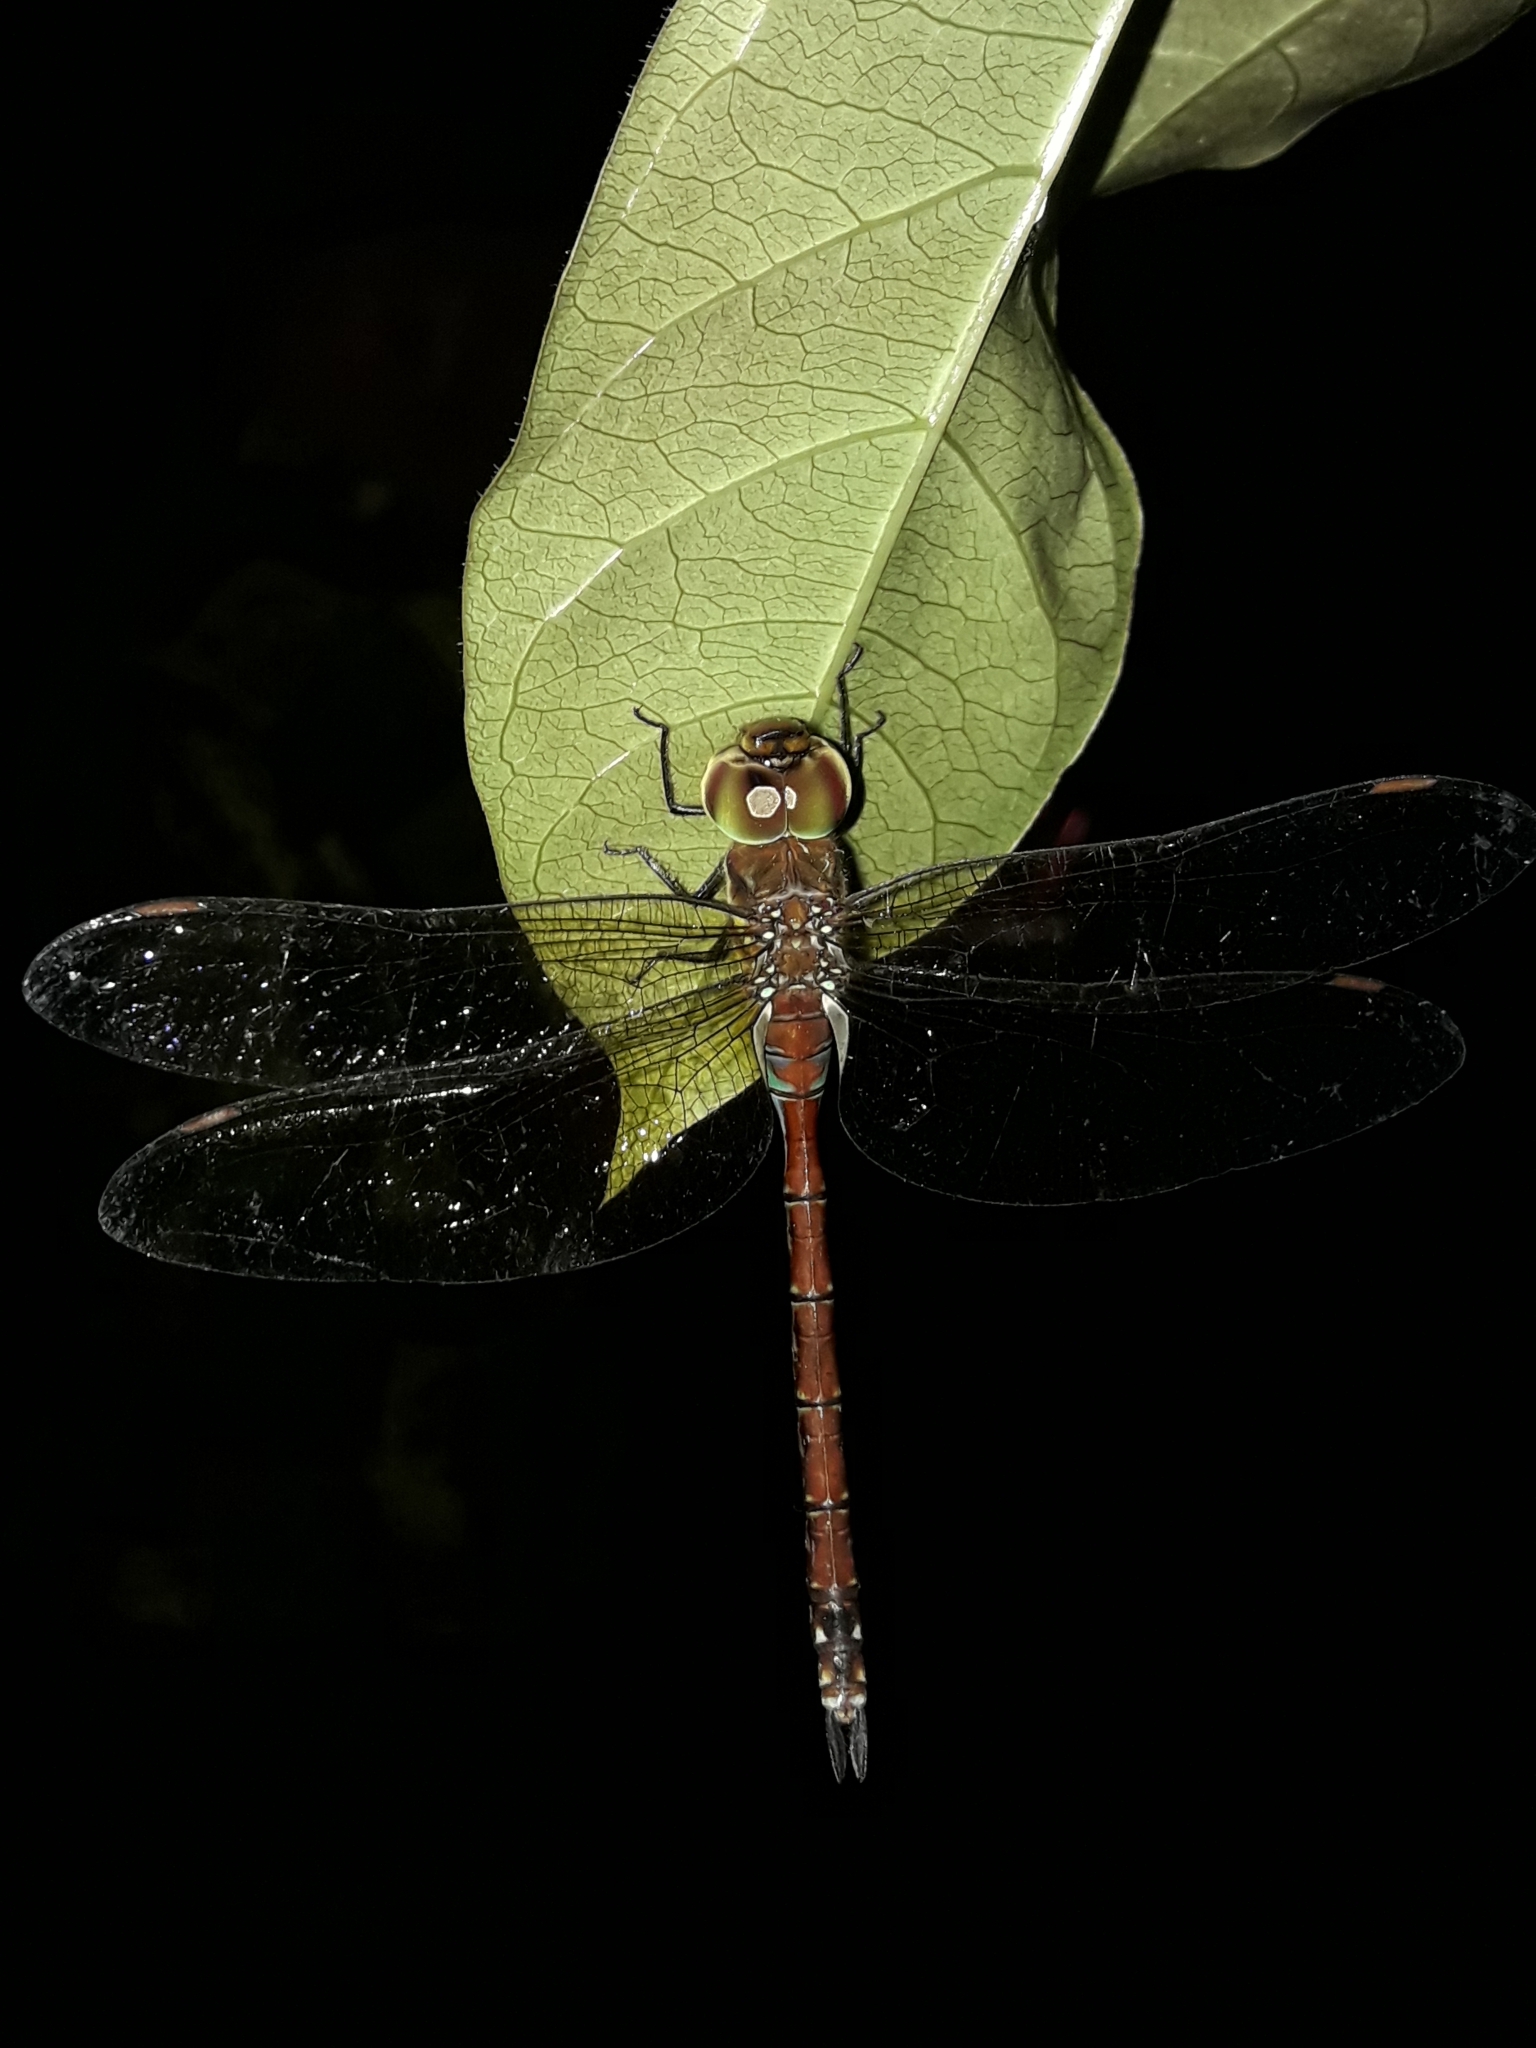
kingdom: Animalia
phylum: Arthropoda
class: Insecta
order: Odonata
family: Aeshnidae
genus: Anaciaeschna
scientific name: Anaciaeschna jaspidea
